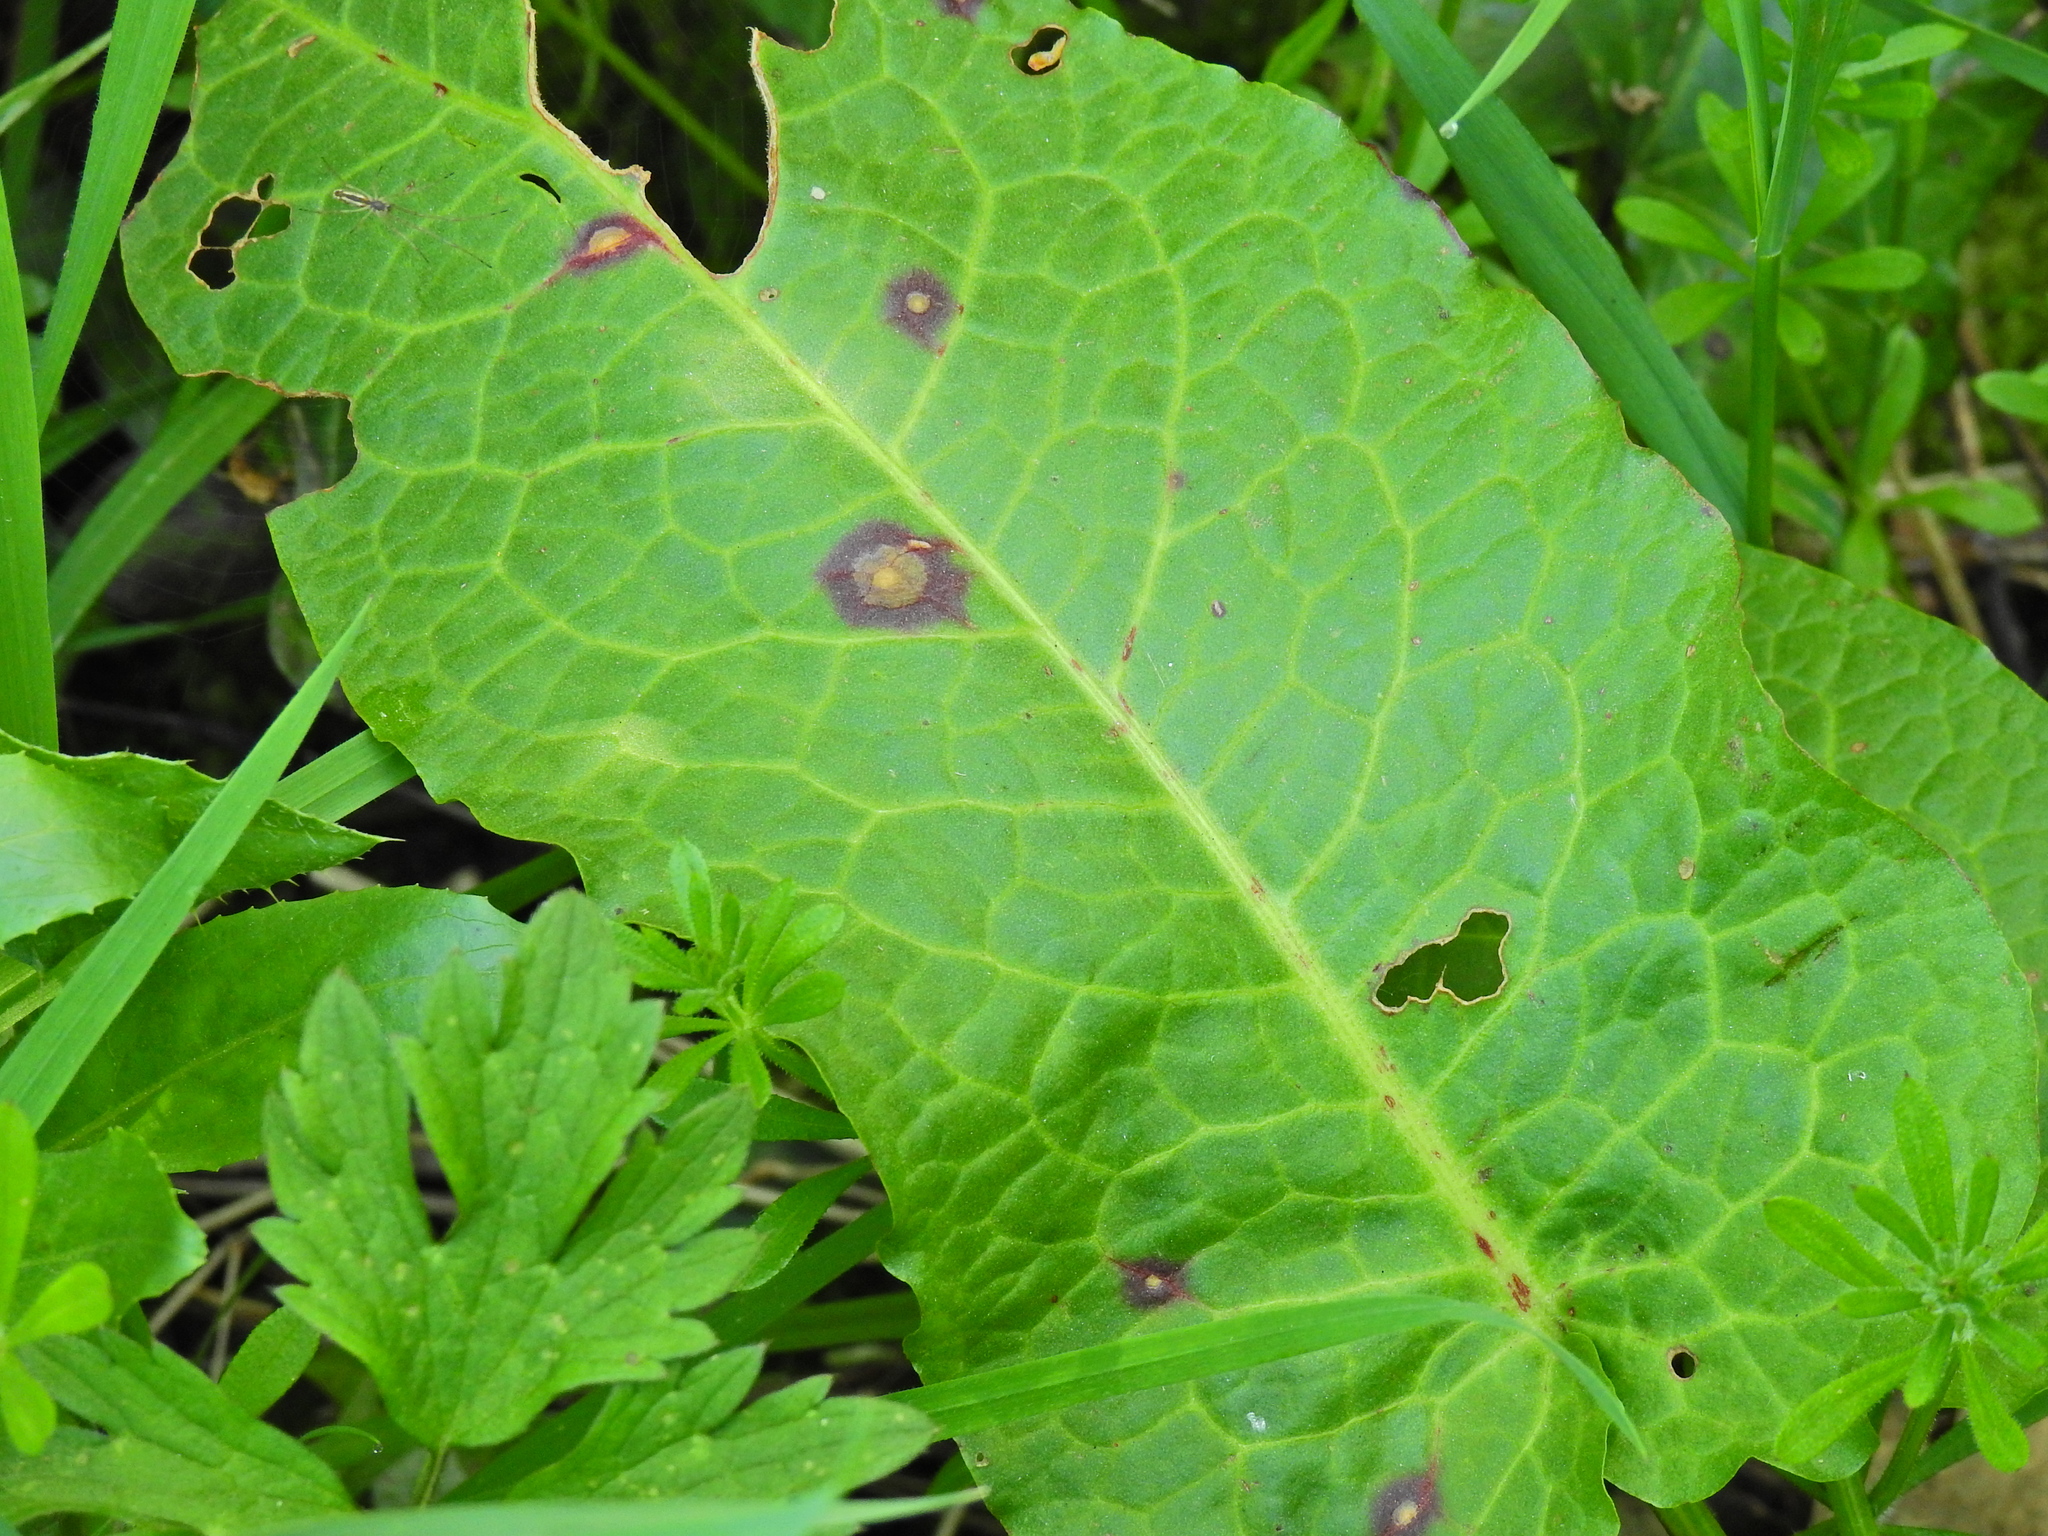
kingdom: Fungi
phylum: Ascomycota
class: Dothideomycetes
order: Mycosphaerellales
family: Mycosphaerellaceae
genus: Ramularia
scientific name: Ramularia rubella
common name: Red dock spot
